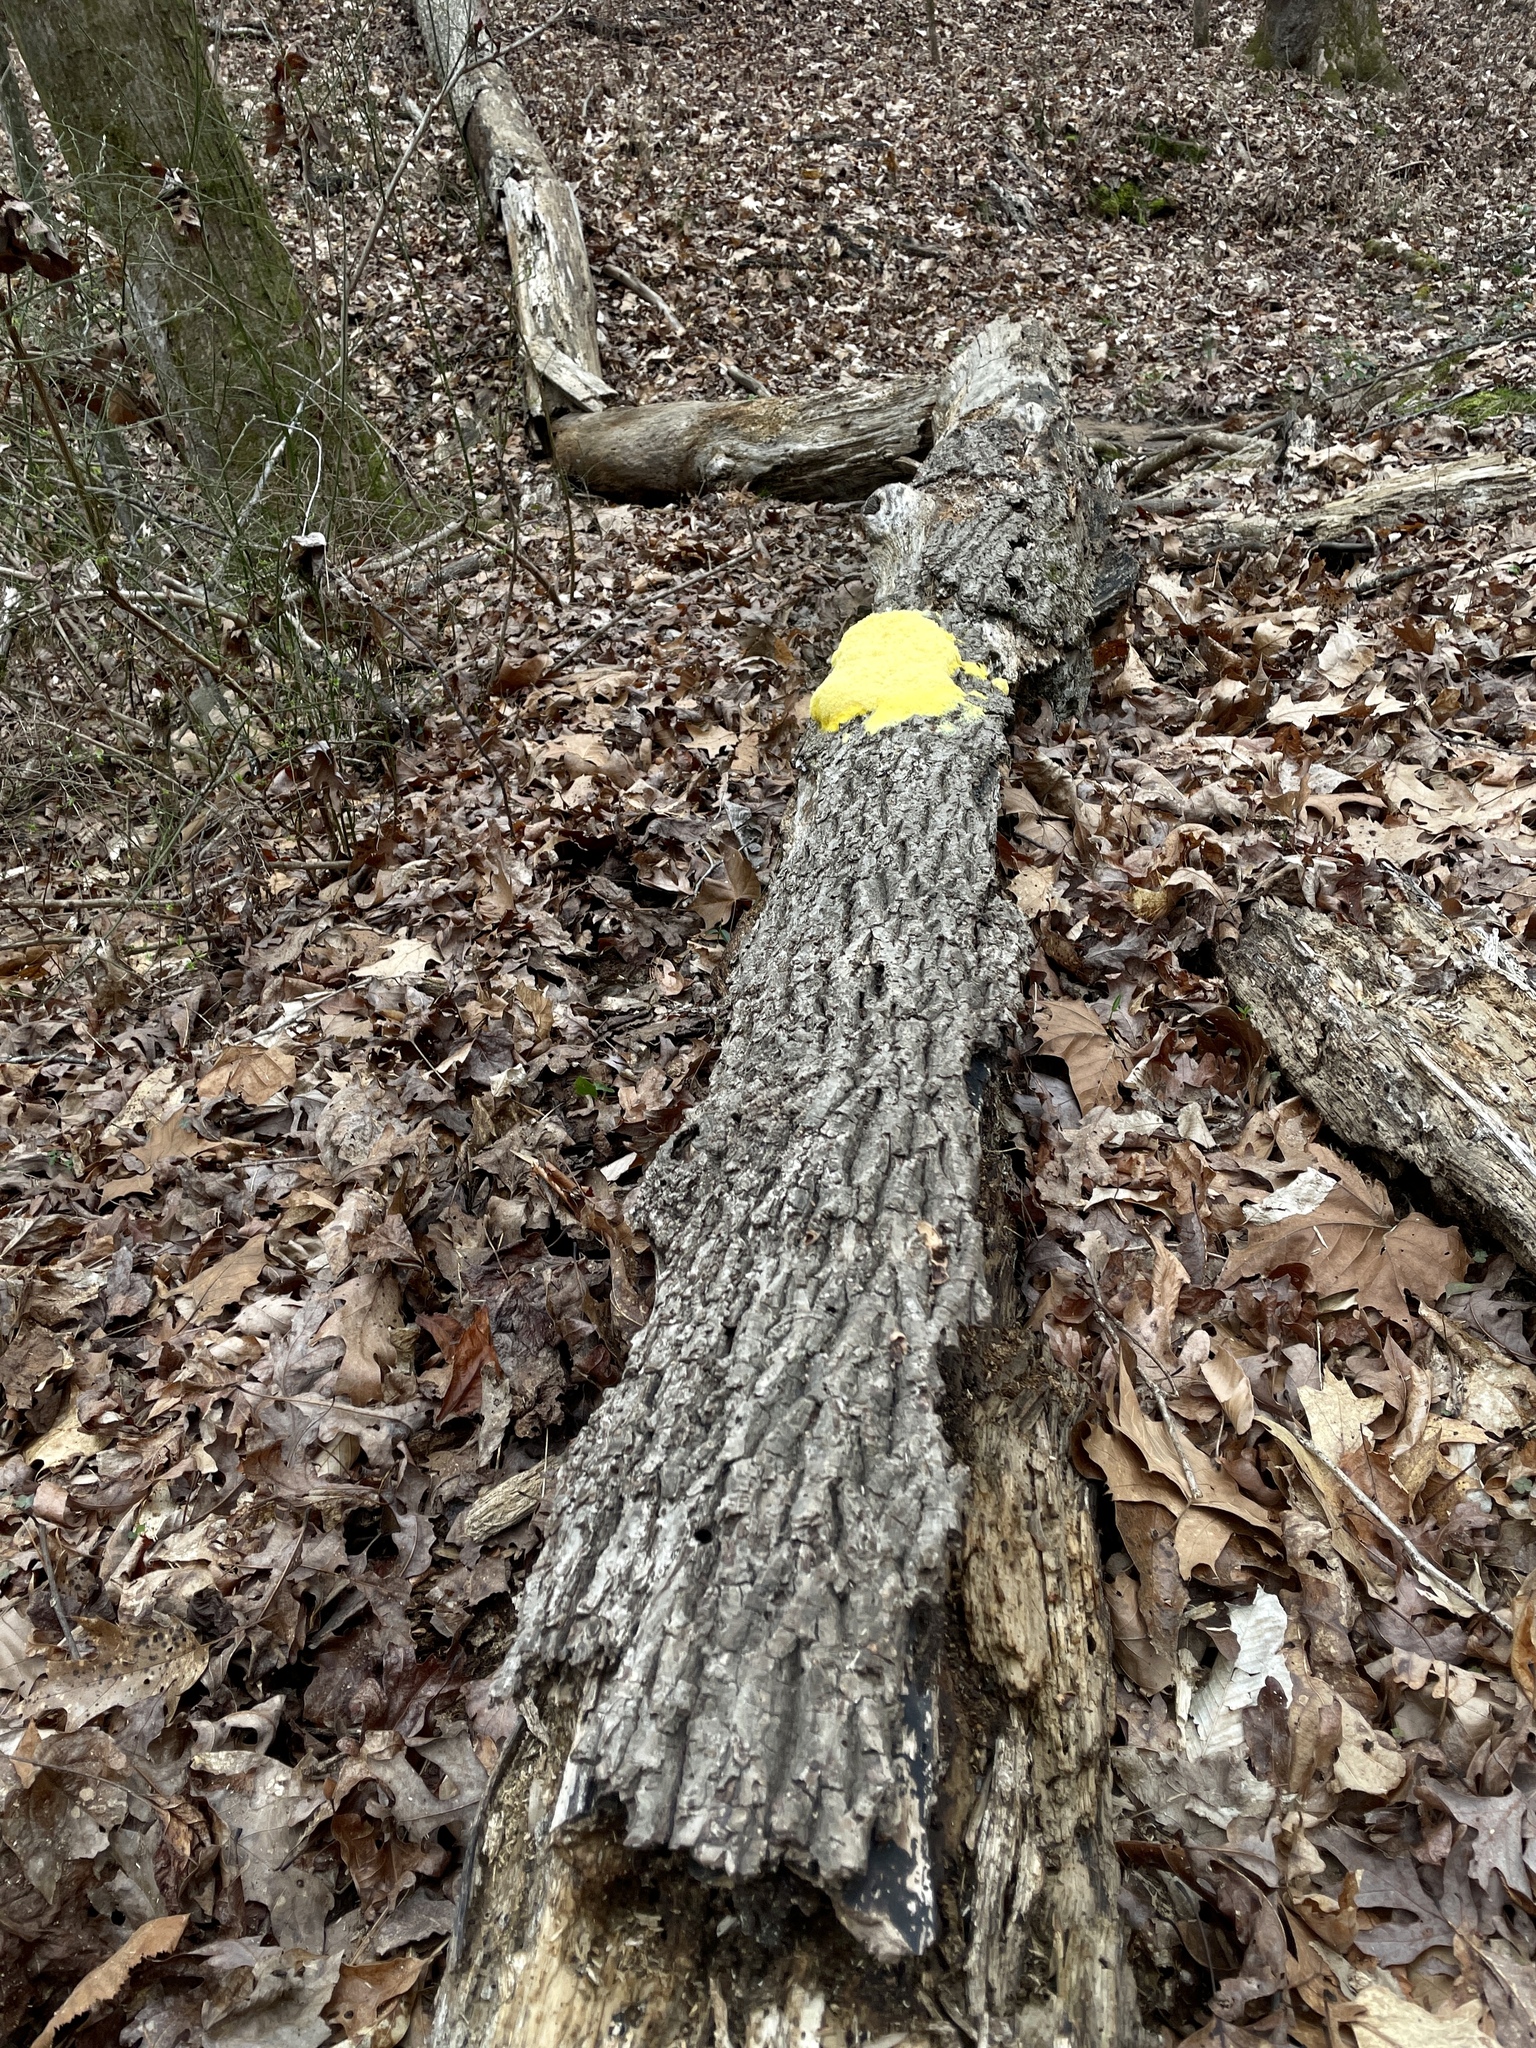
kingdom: Protozoa
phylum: Mycetozoa
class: Myxomycetes
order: Physarales
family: Physaraceae
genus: Fuligo
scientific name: Fuligo septica
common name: Dog vomit slime mold
